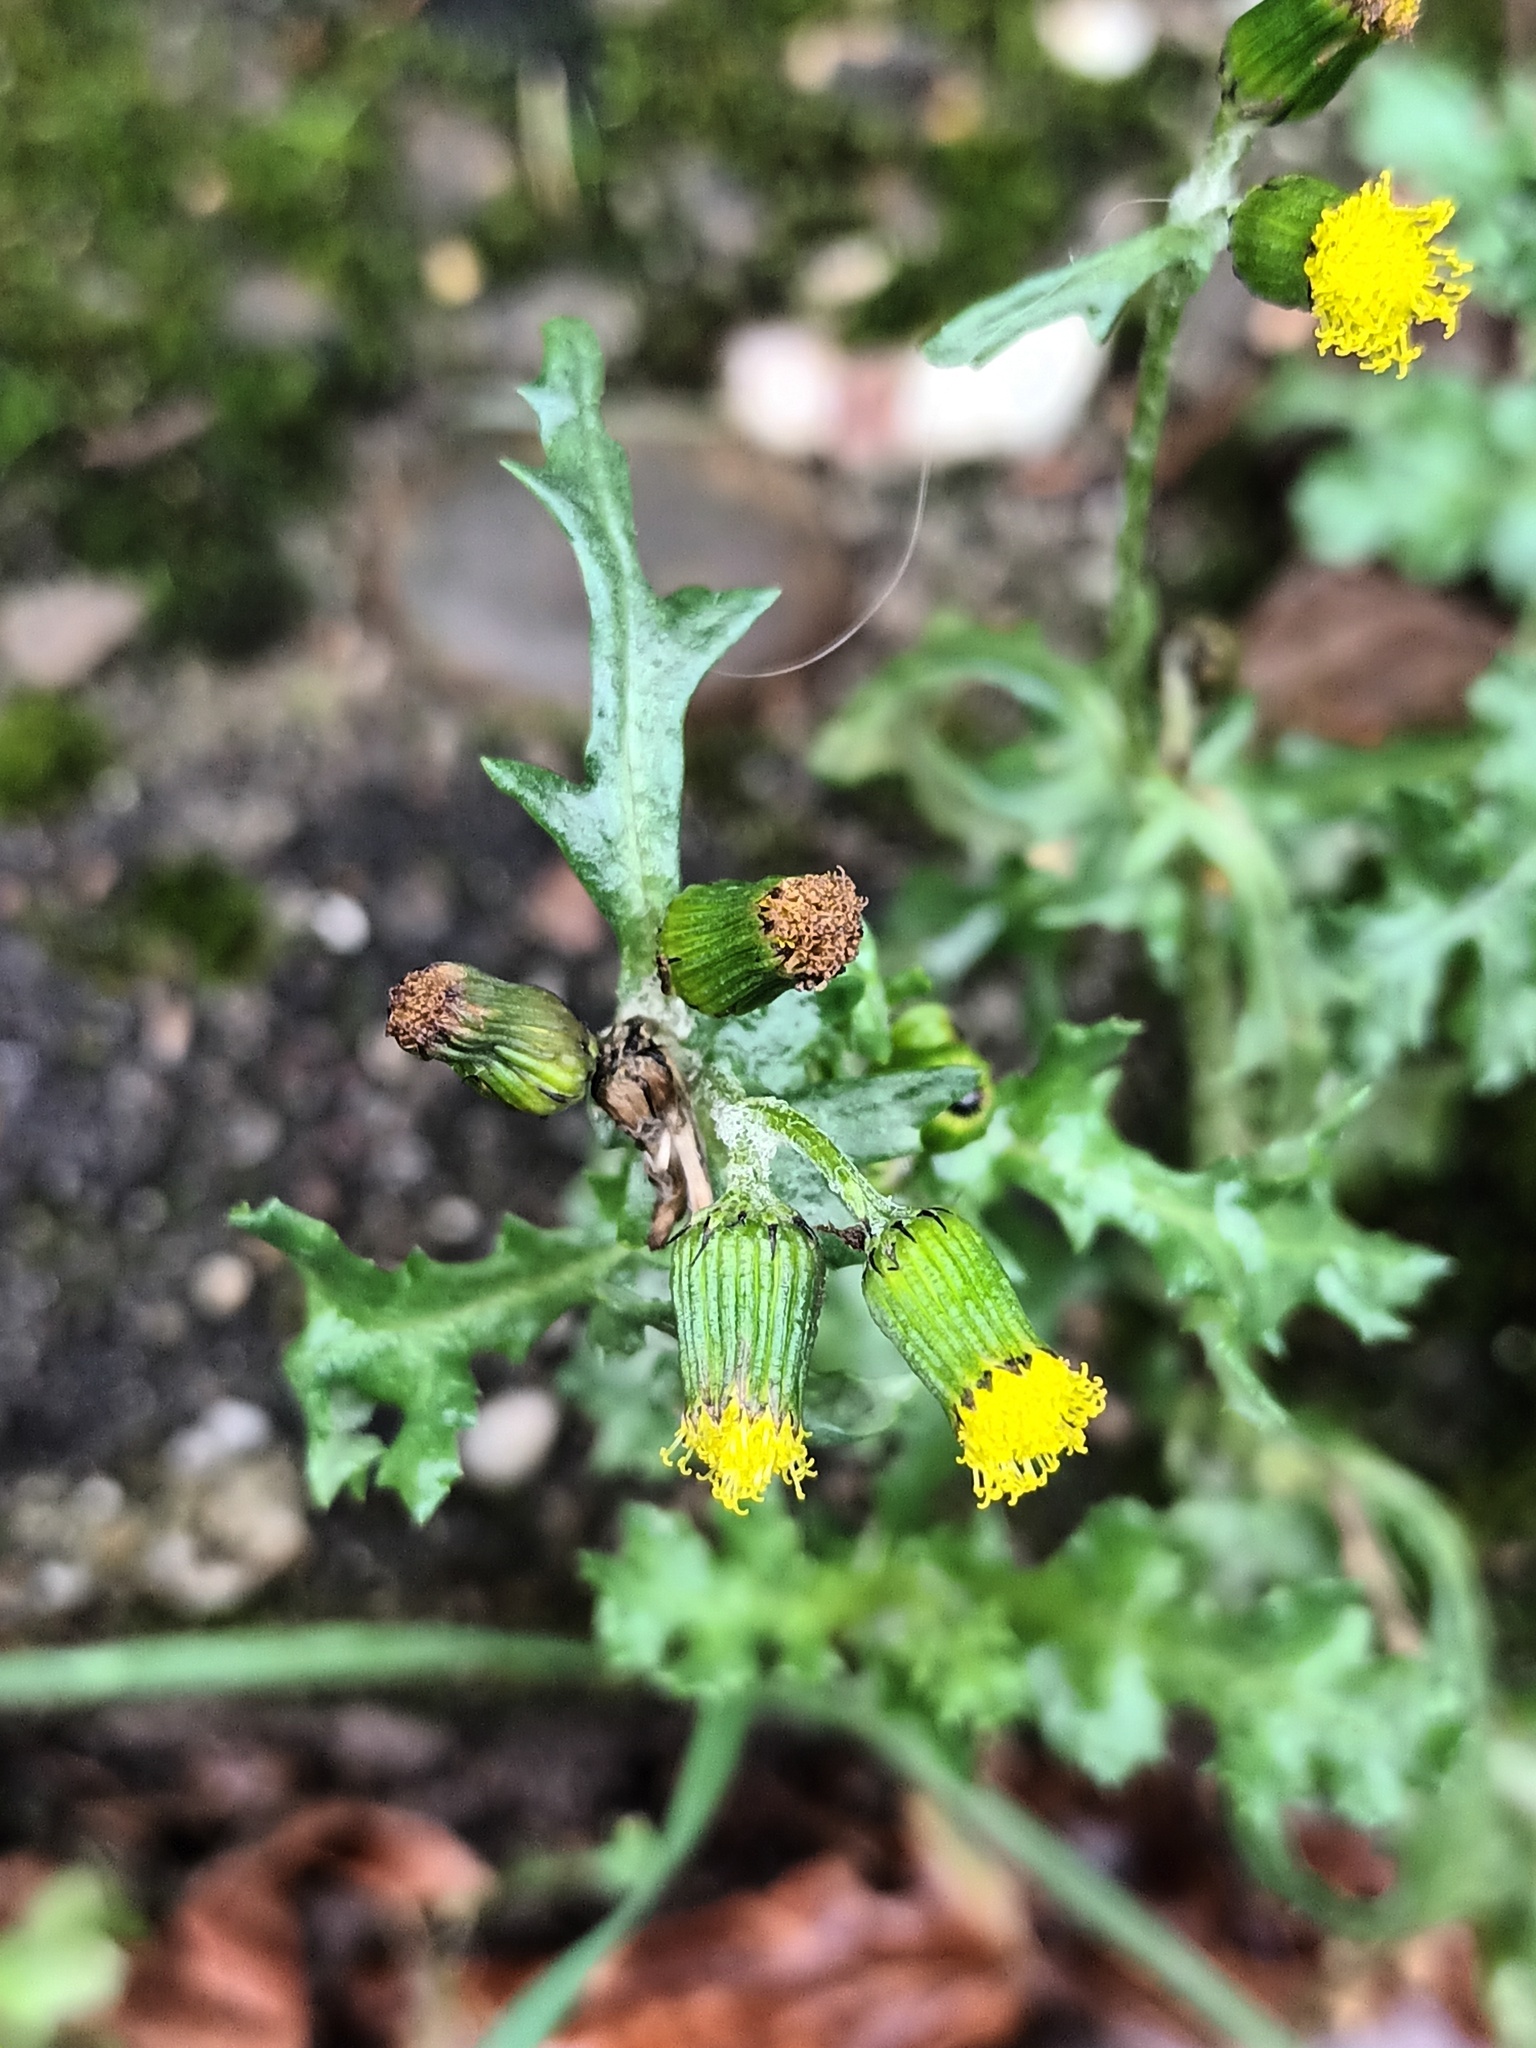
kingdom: Plantae
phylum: Tracheophyta
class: Magnoliopsida
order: Asterales
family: Asteraceae
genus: Senecio
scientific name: Senecio vulgaris
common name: Old-man-in-the-spring
